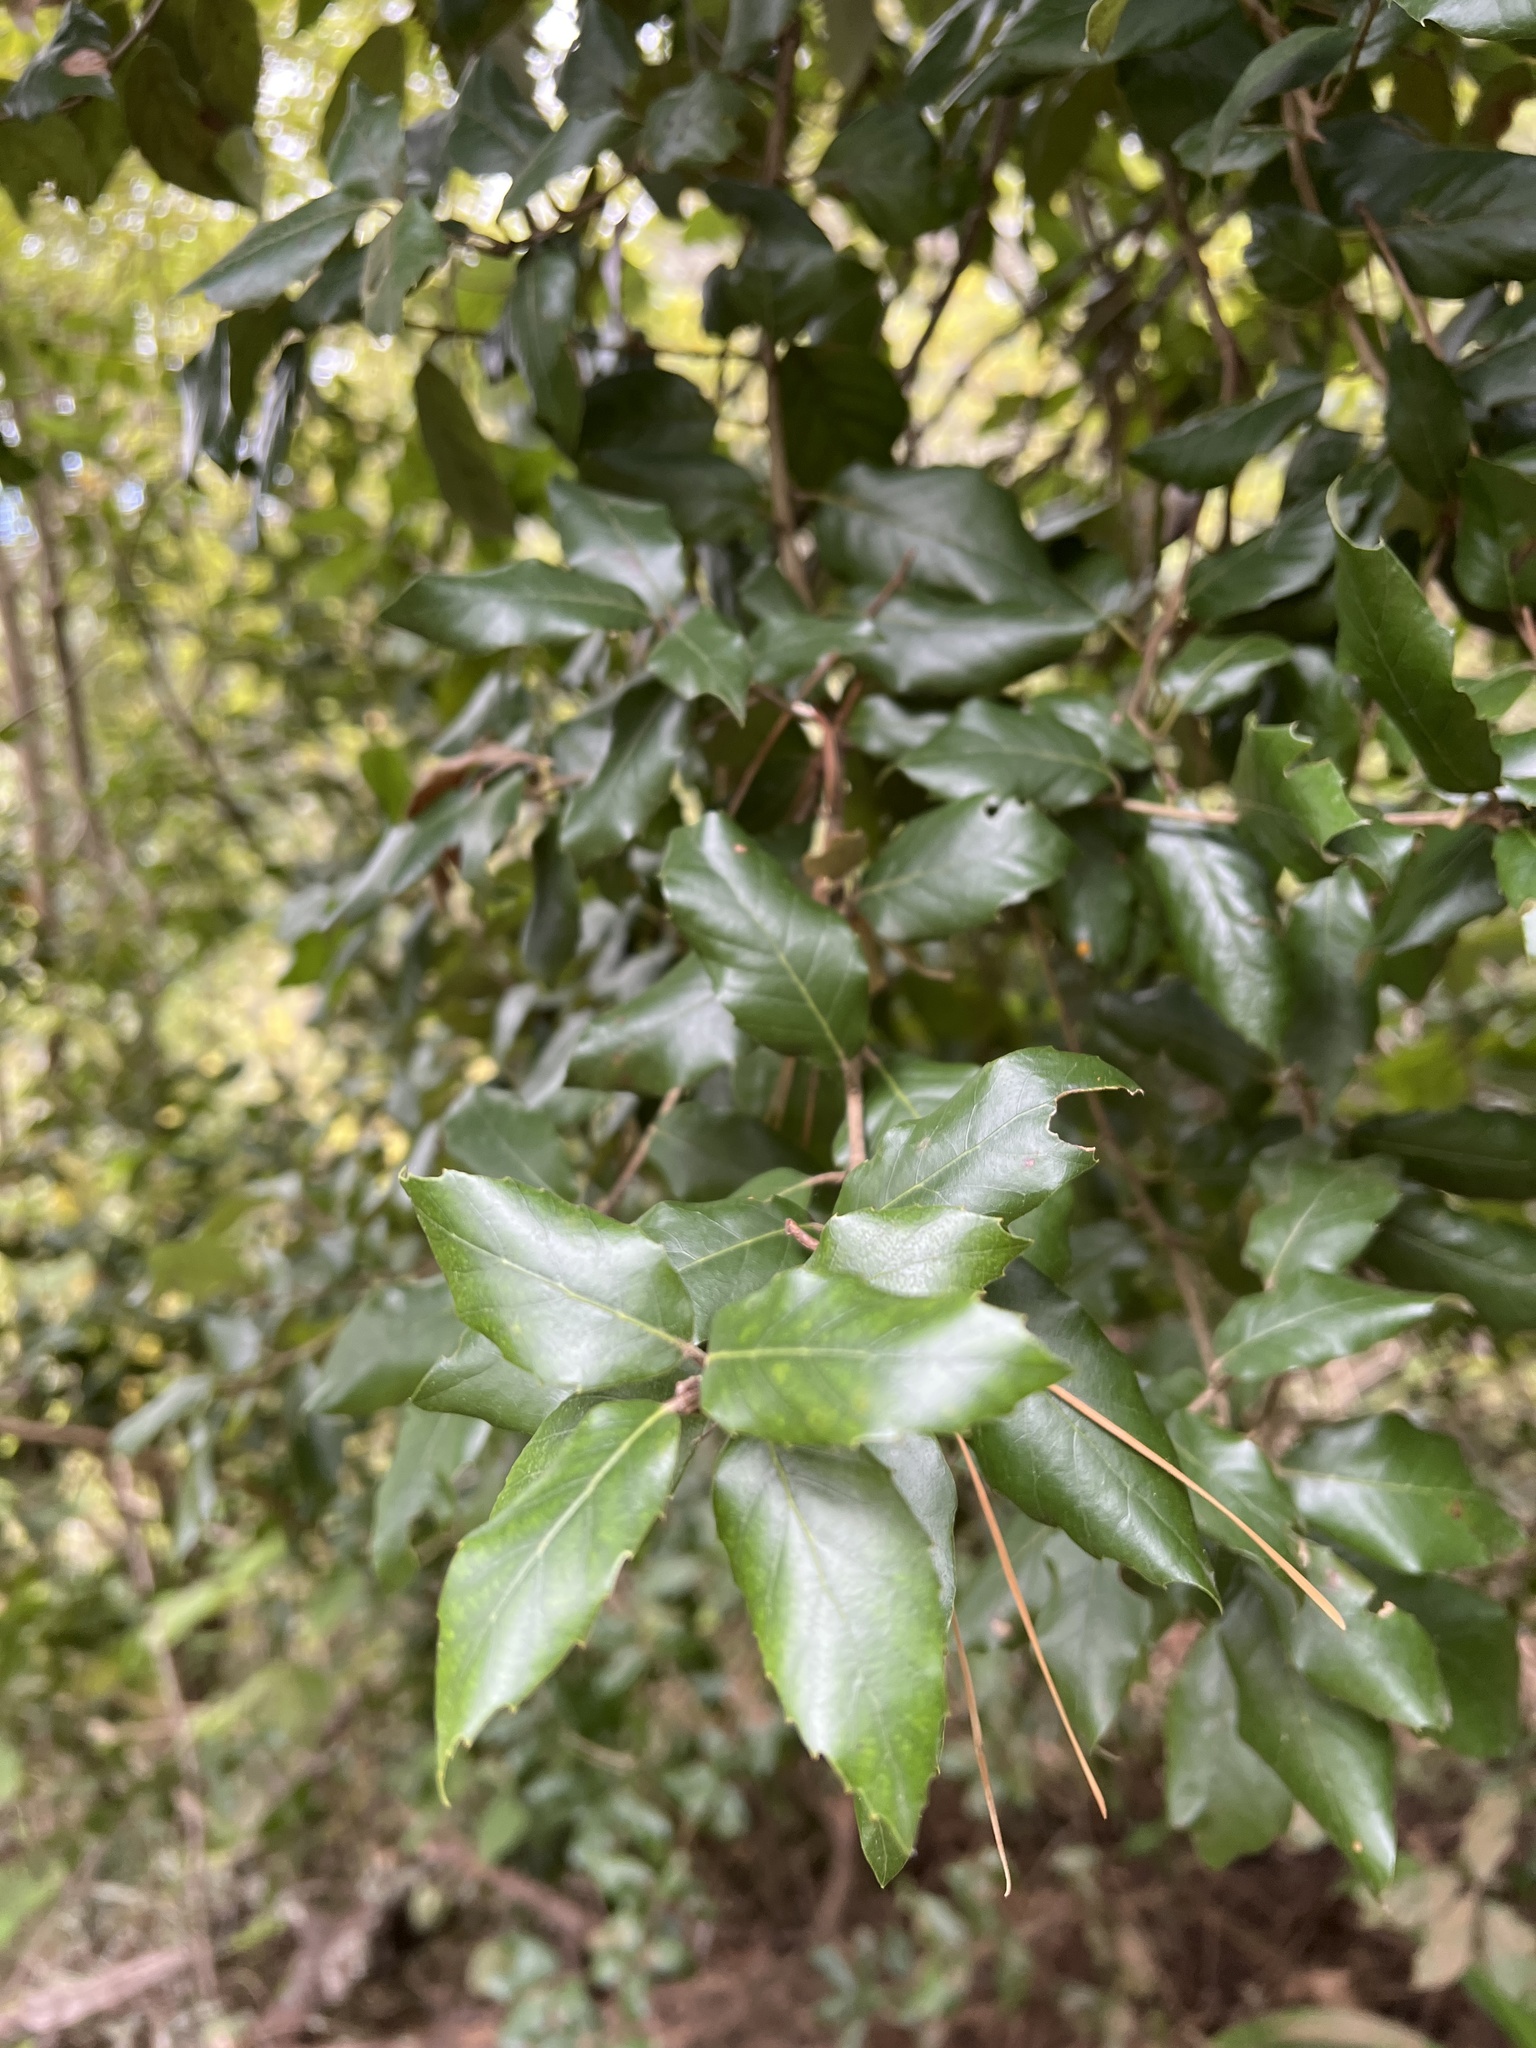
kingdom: Plantae
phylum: Tracheophyta
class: Magnoliopsida
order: Fagales
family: Fagaceae
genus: Quercus
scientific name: Quercus ilex
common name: Evergreen oak
